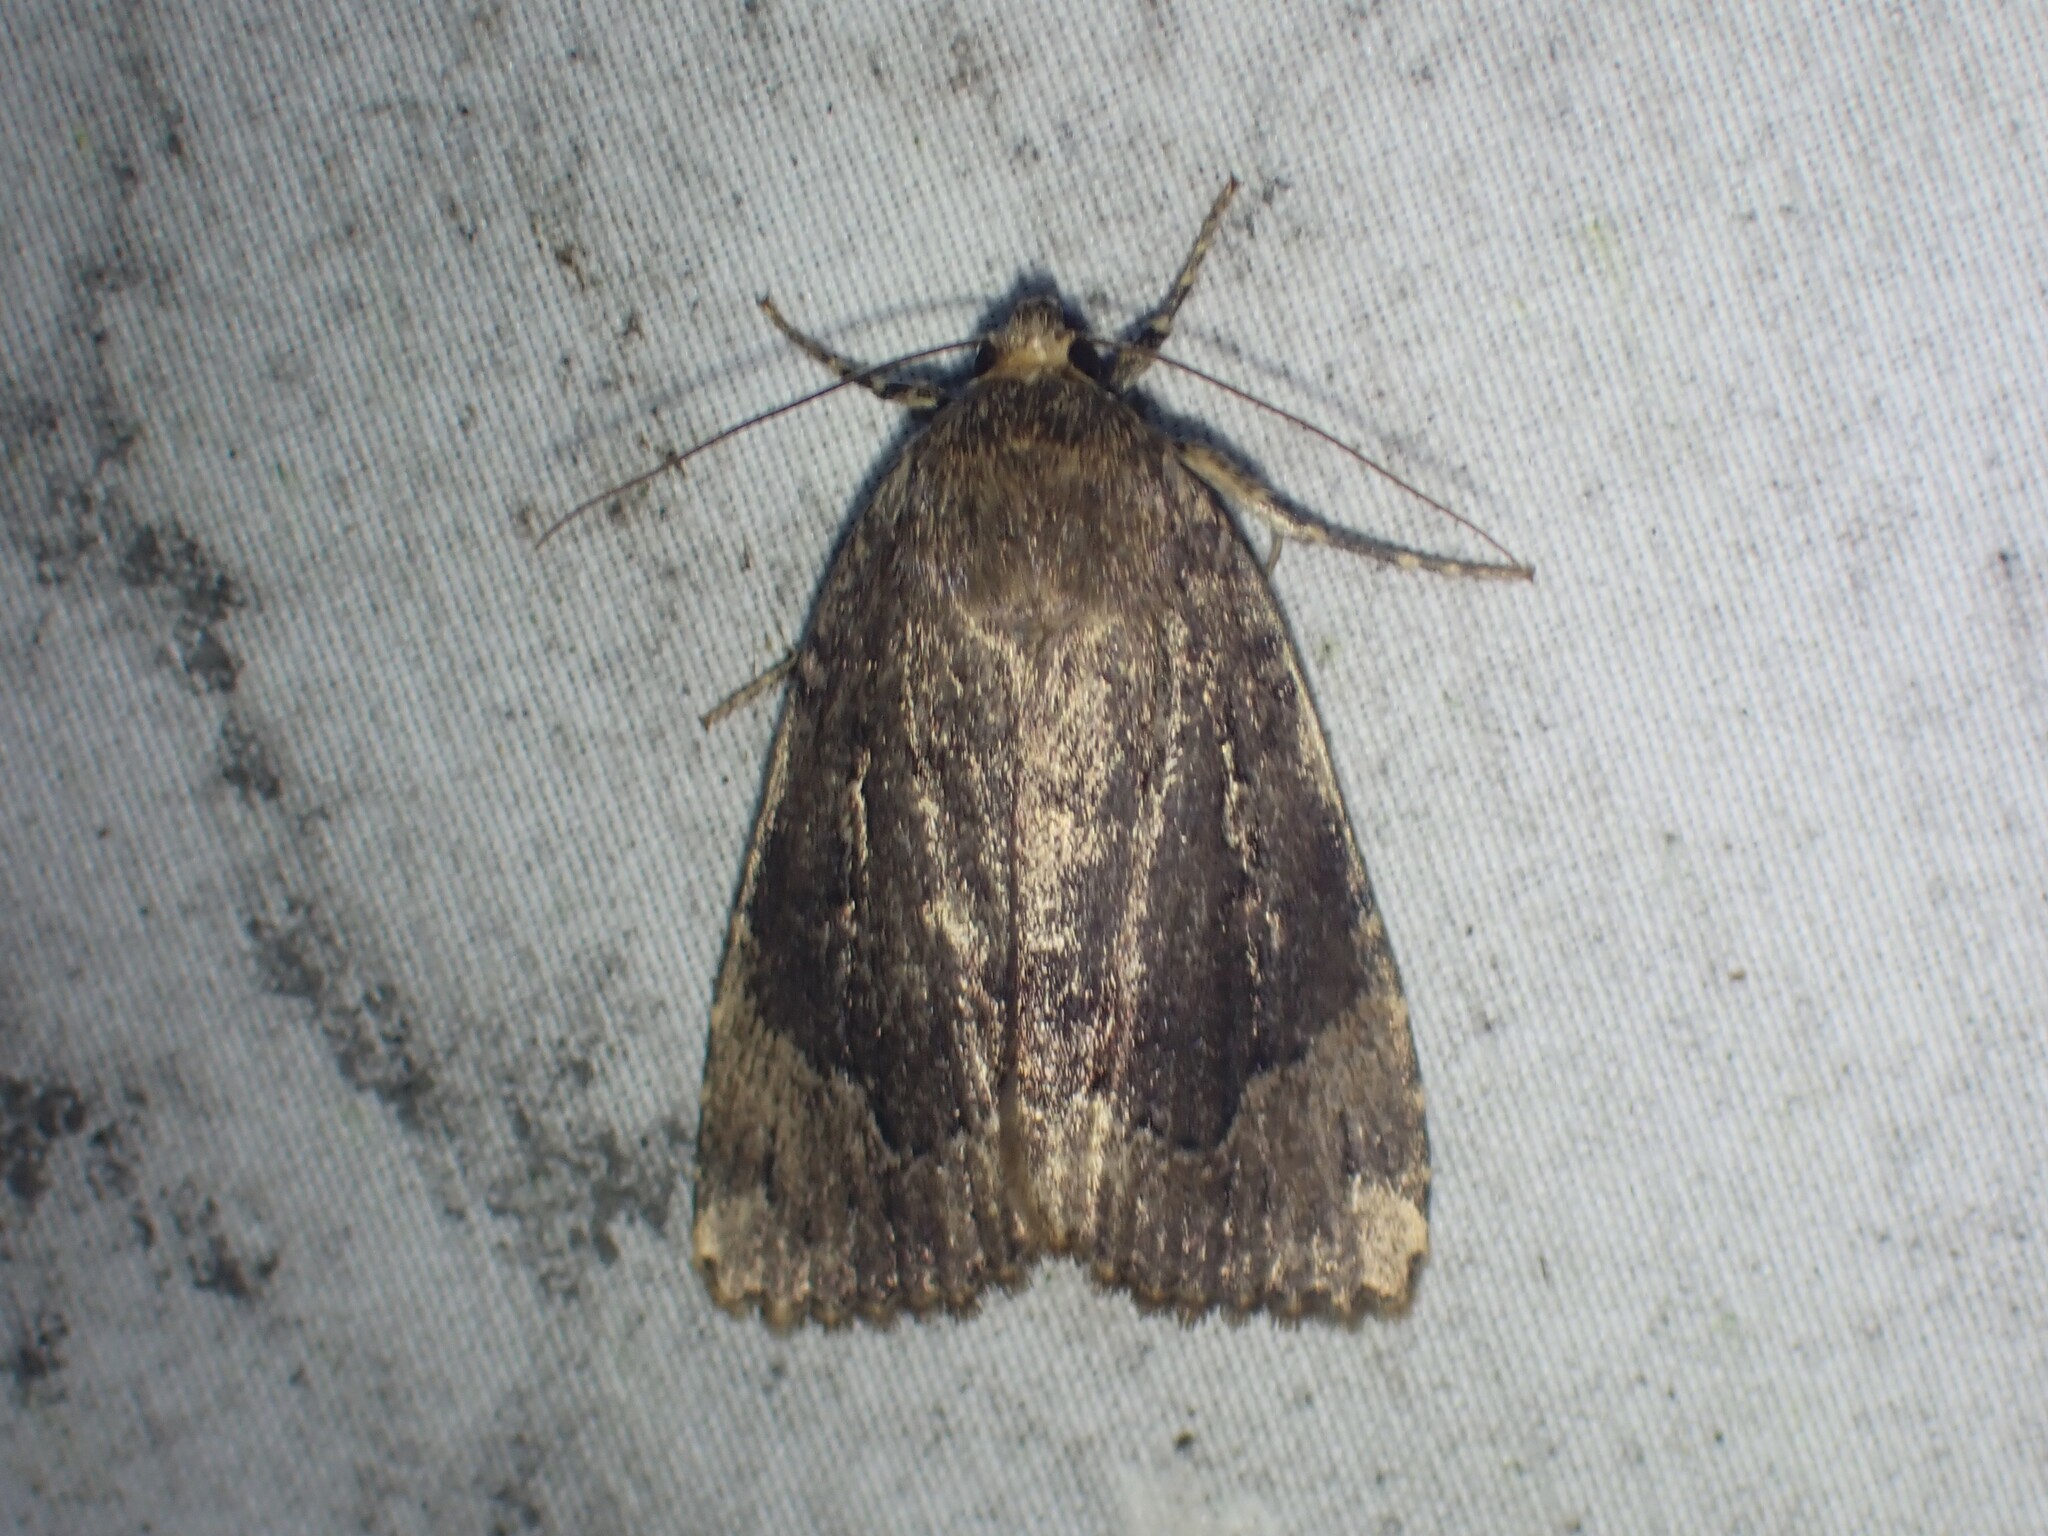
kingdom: Animalia
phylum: Arthropoda
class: Insecta
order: Lepidoptera
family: Noctuidae
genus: Amphipyra
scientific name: Amphipyra pyramidoides
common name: American copper underwing
